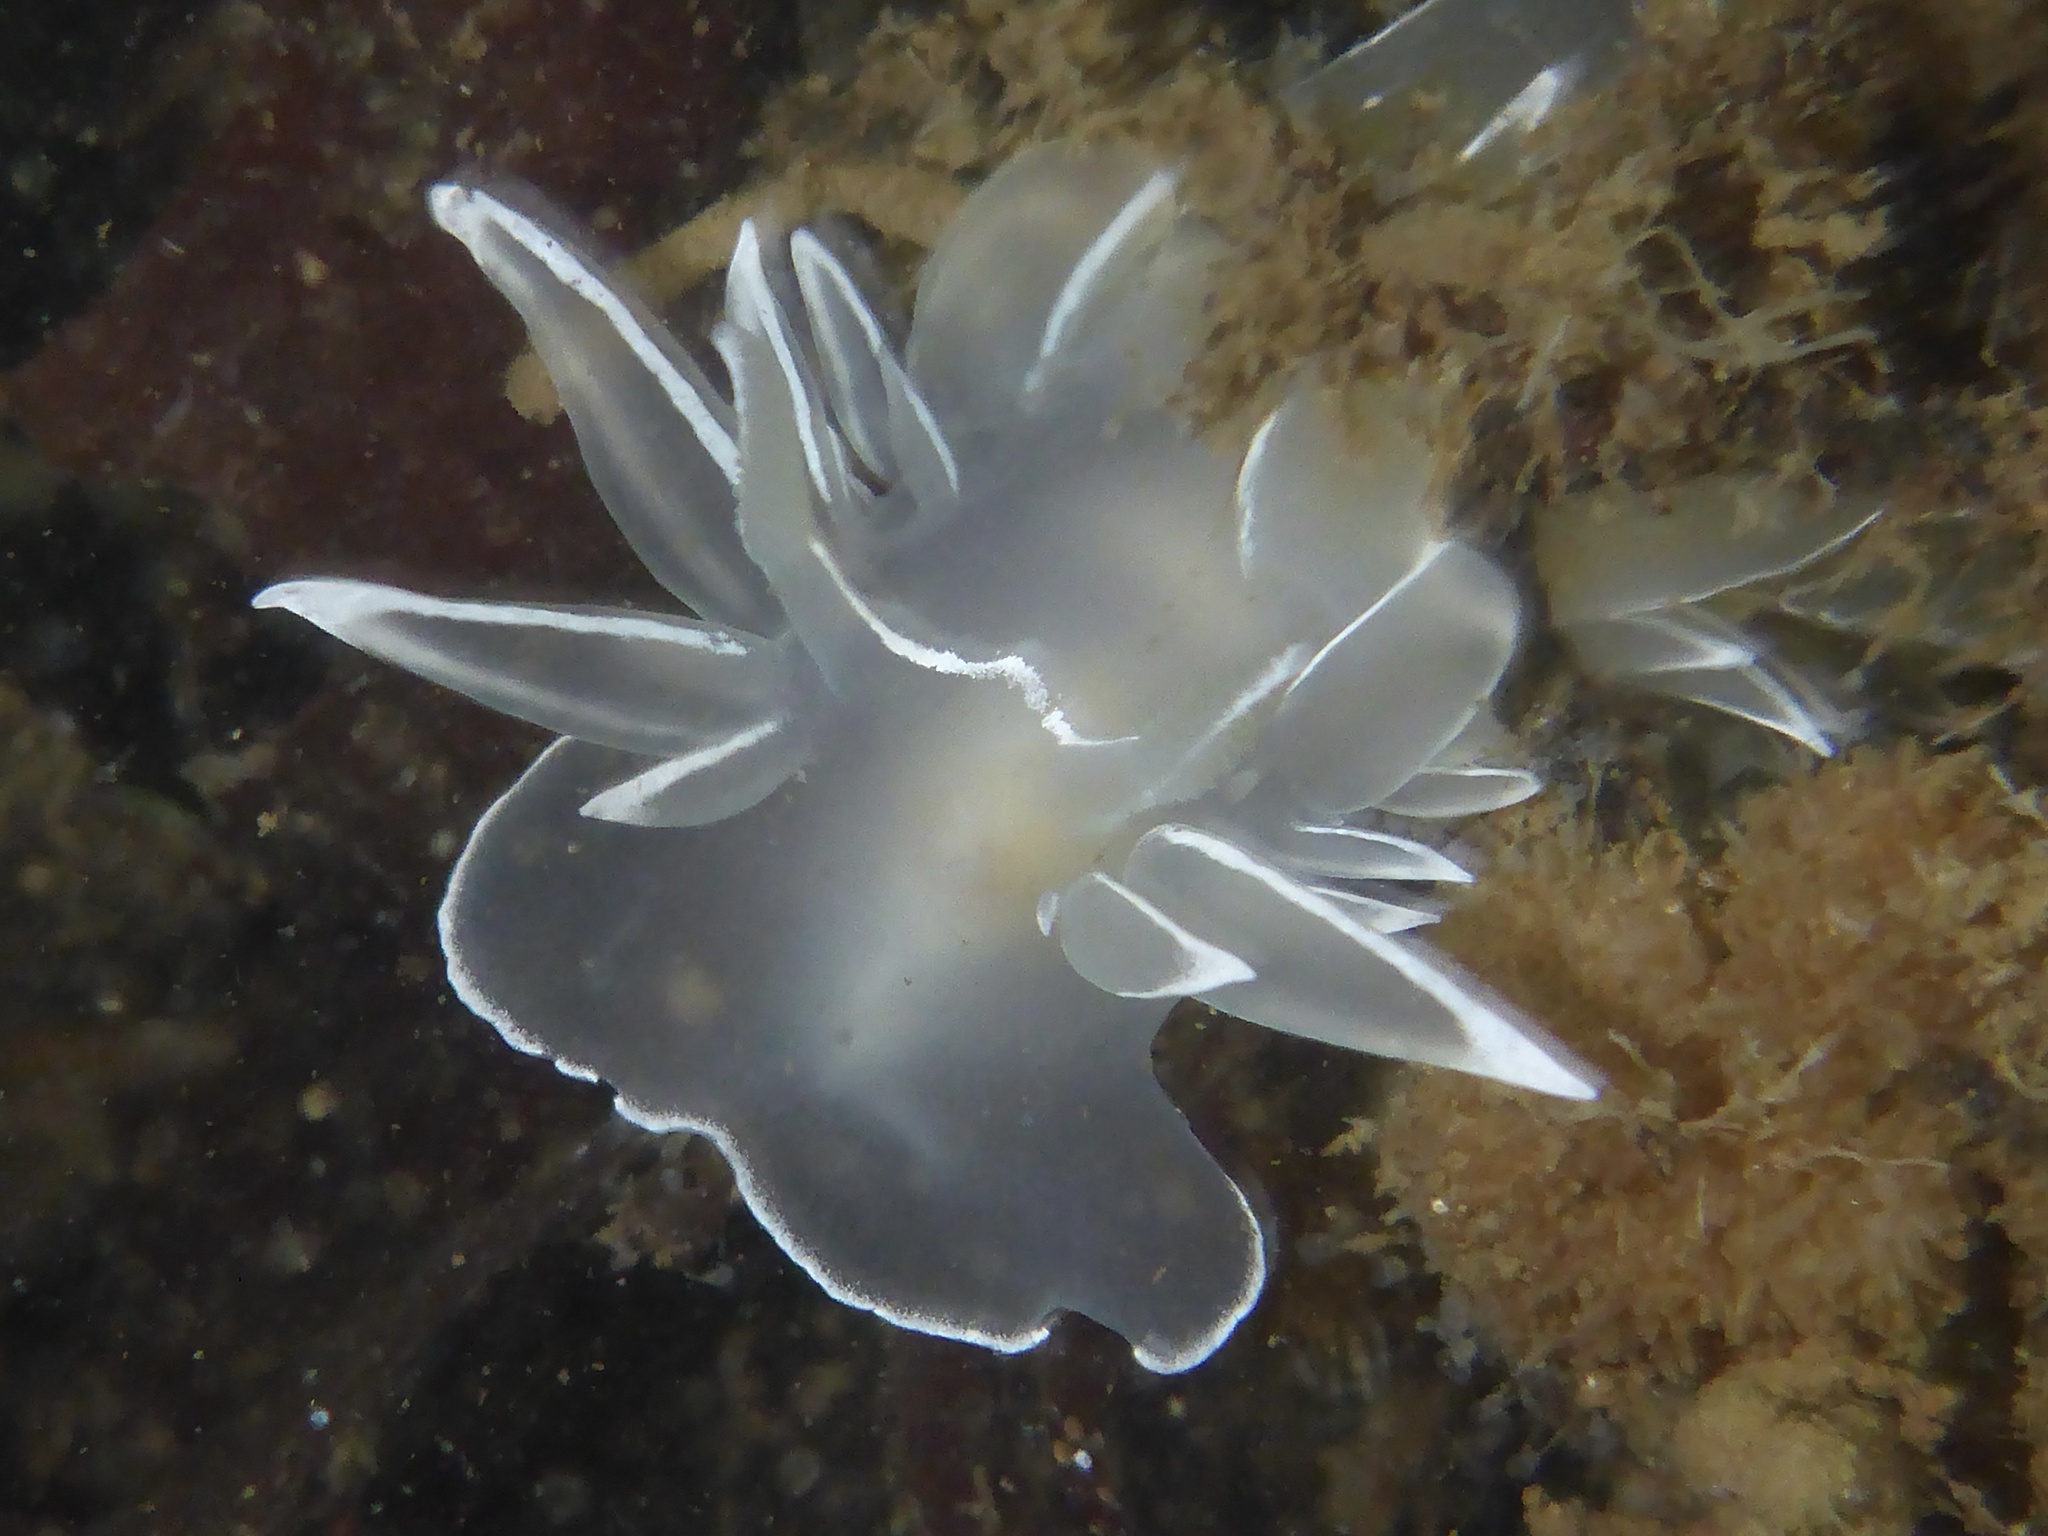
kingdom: Animalia
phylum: Mollusca
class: Gastropoda
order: Nudibranchia
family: Dironidae
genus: Dirona
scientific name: Dirona albolineata
